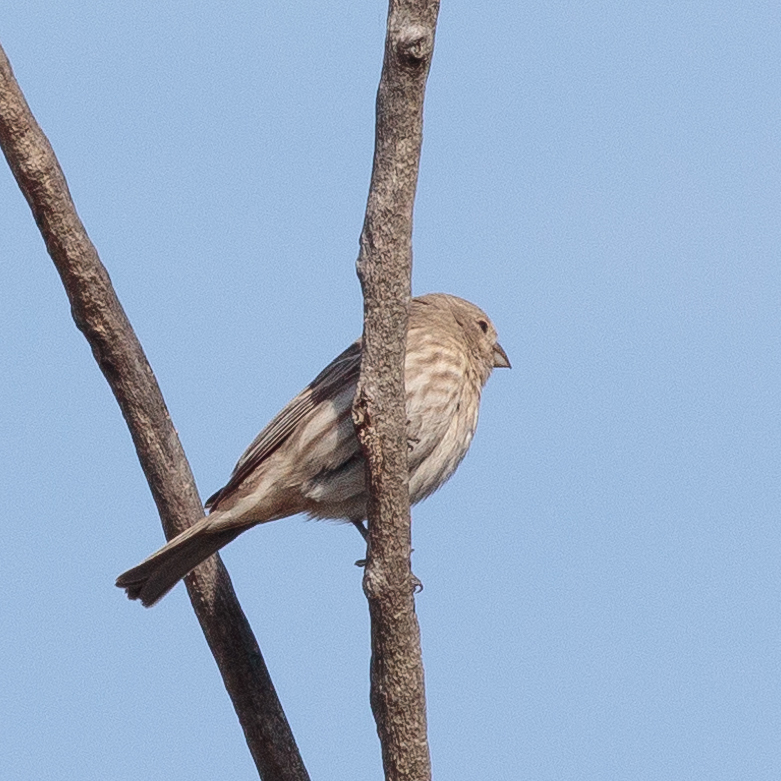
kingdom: Animalia
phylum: Chordata
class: Aves
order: Passeriformes
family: Fringillidae
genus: Haemorhous
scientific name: Haemorhous mexicanus
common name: House finch
